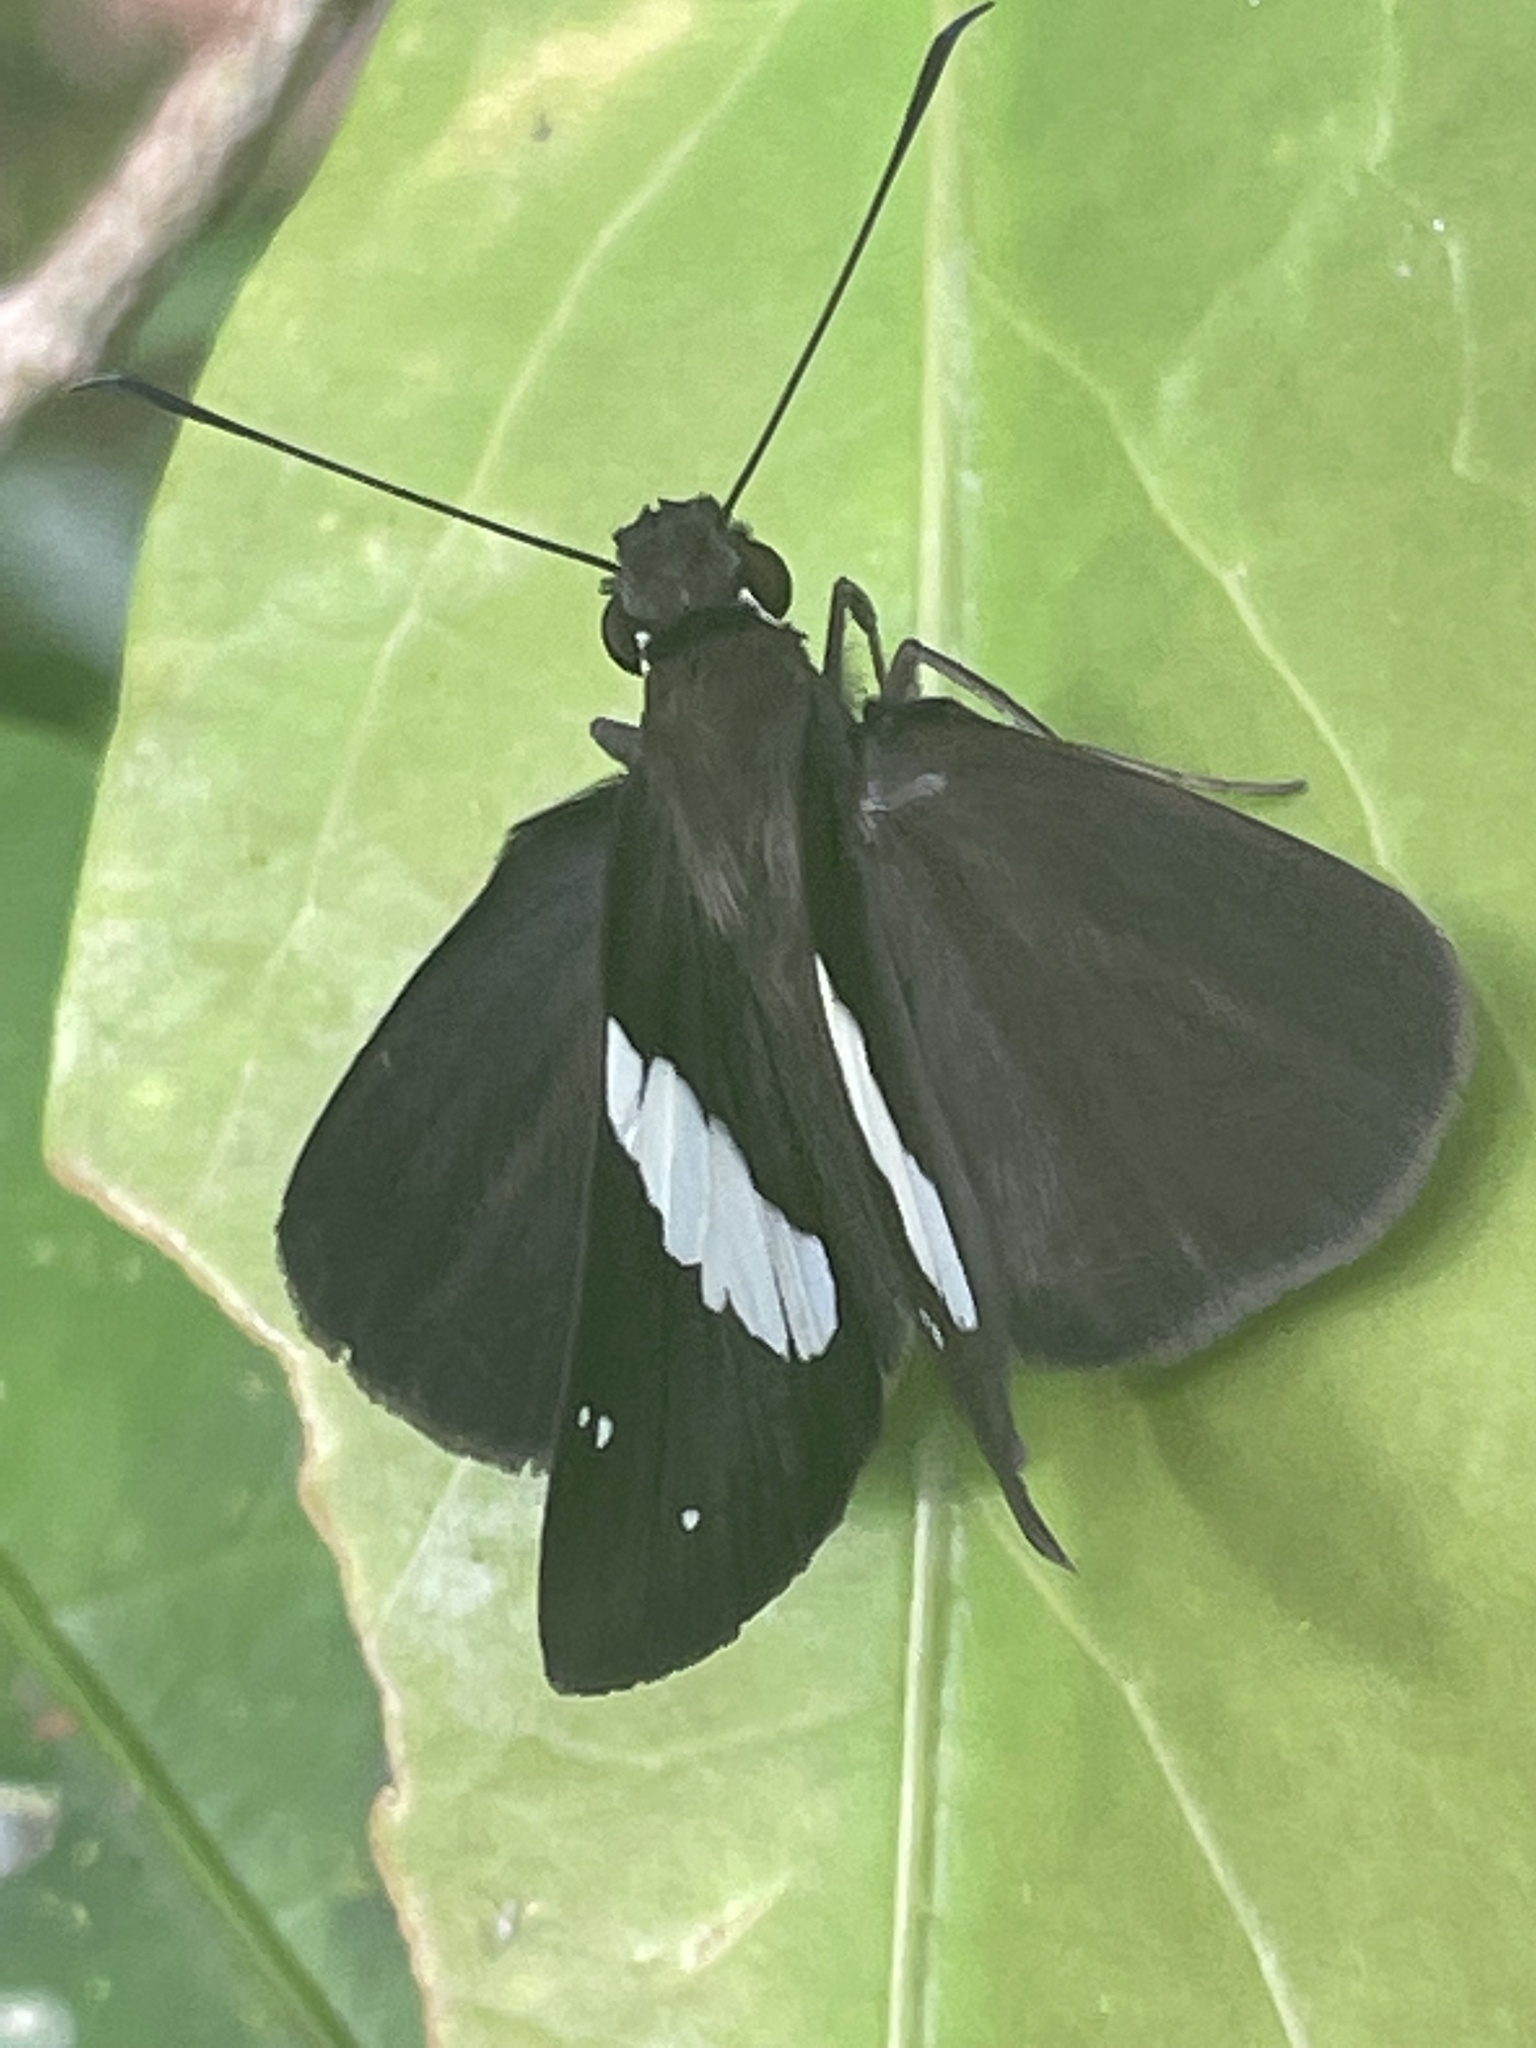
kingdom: Animalia
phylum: Arthropoda
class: Insecta
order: Lepidoptera
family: Hesperiidae
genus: Notocrypta
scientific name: Notocrypta waigensis
